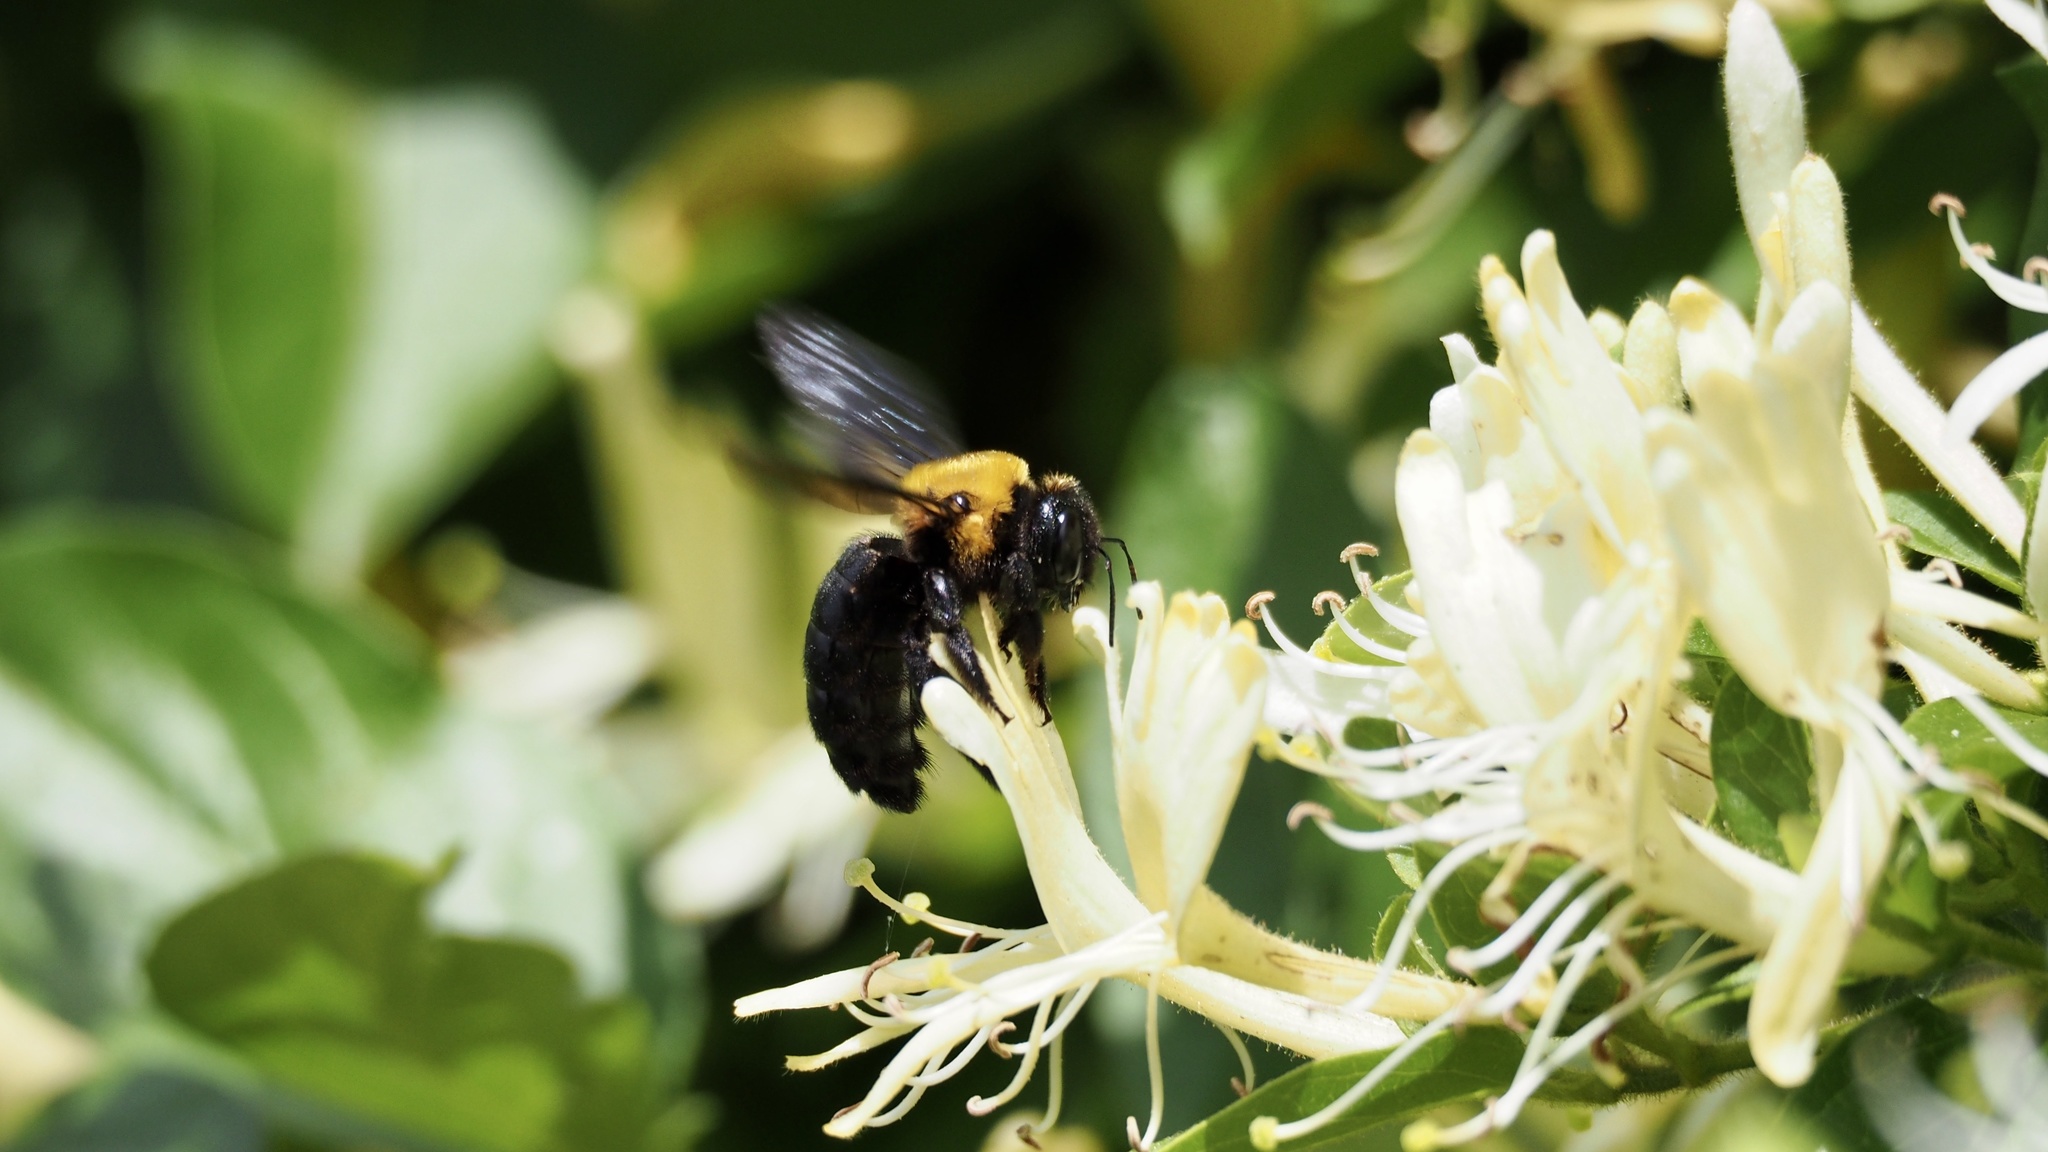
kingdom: Animalia
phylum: Arthropoda
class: Insecta
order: Hymenoptera
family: Apidae
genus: Xylocopa
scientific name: Xylocopa appendiculata
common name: Japanese carpenter bee
